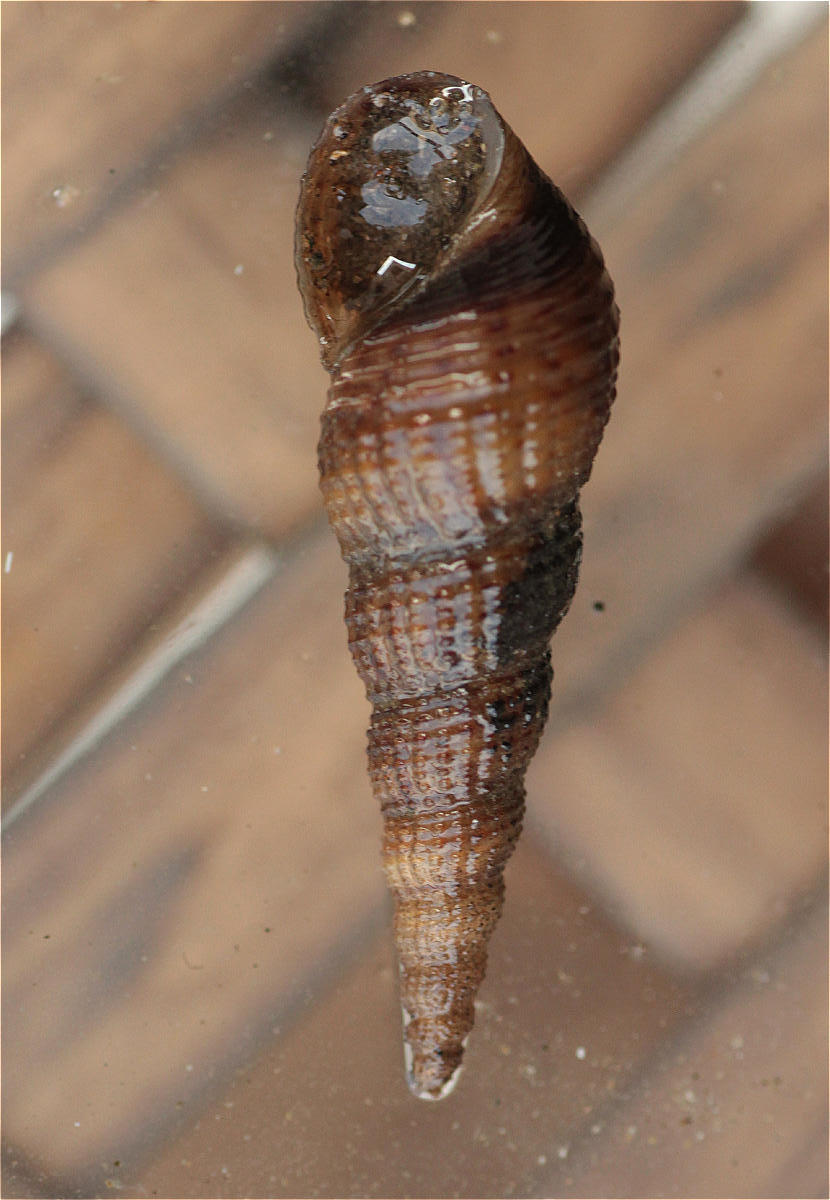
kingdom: Animalia
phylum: Mollusca
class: Gastropoda
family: Thiaridae
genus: Melanoides
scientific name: Melanoides tuberculata
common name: Red-rim melania
